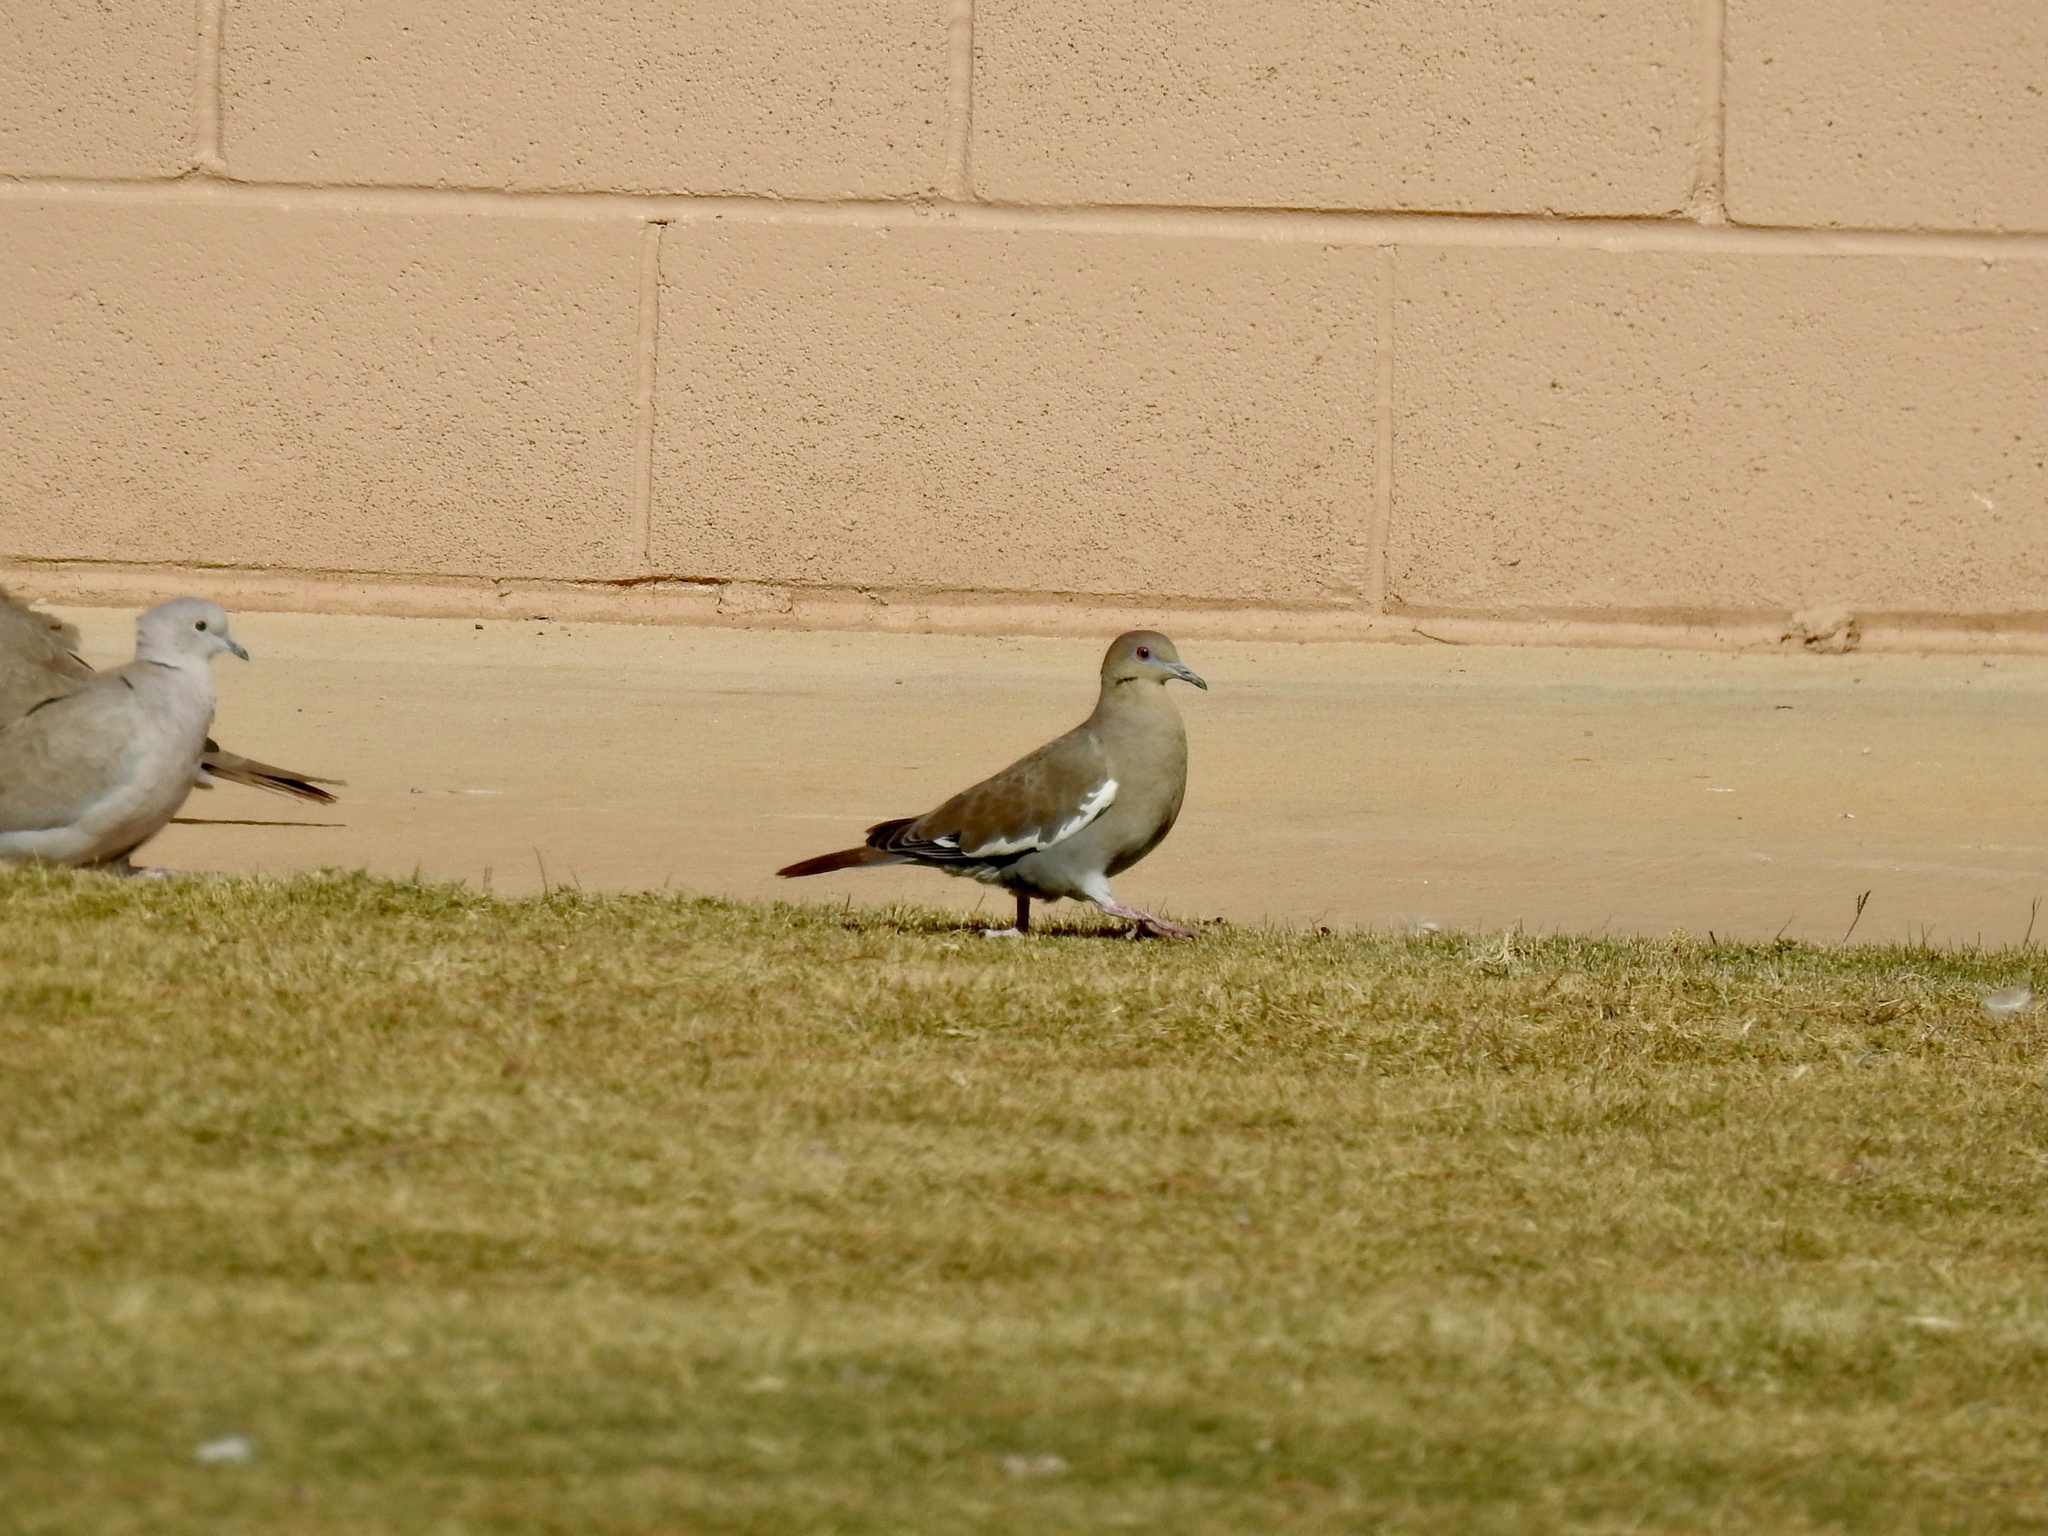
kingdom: Animalia
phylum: Chordata
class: Aves
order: Columbiformes
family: Columbidae
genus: Zenaida
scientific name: Zenaida asiatica
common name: White-winged dove
